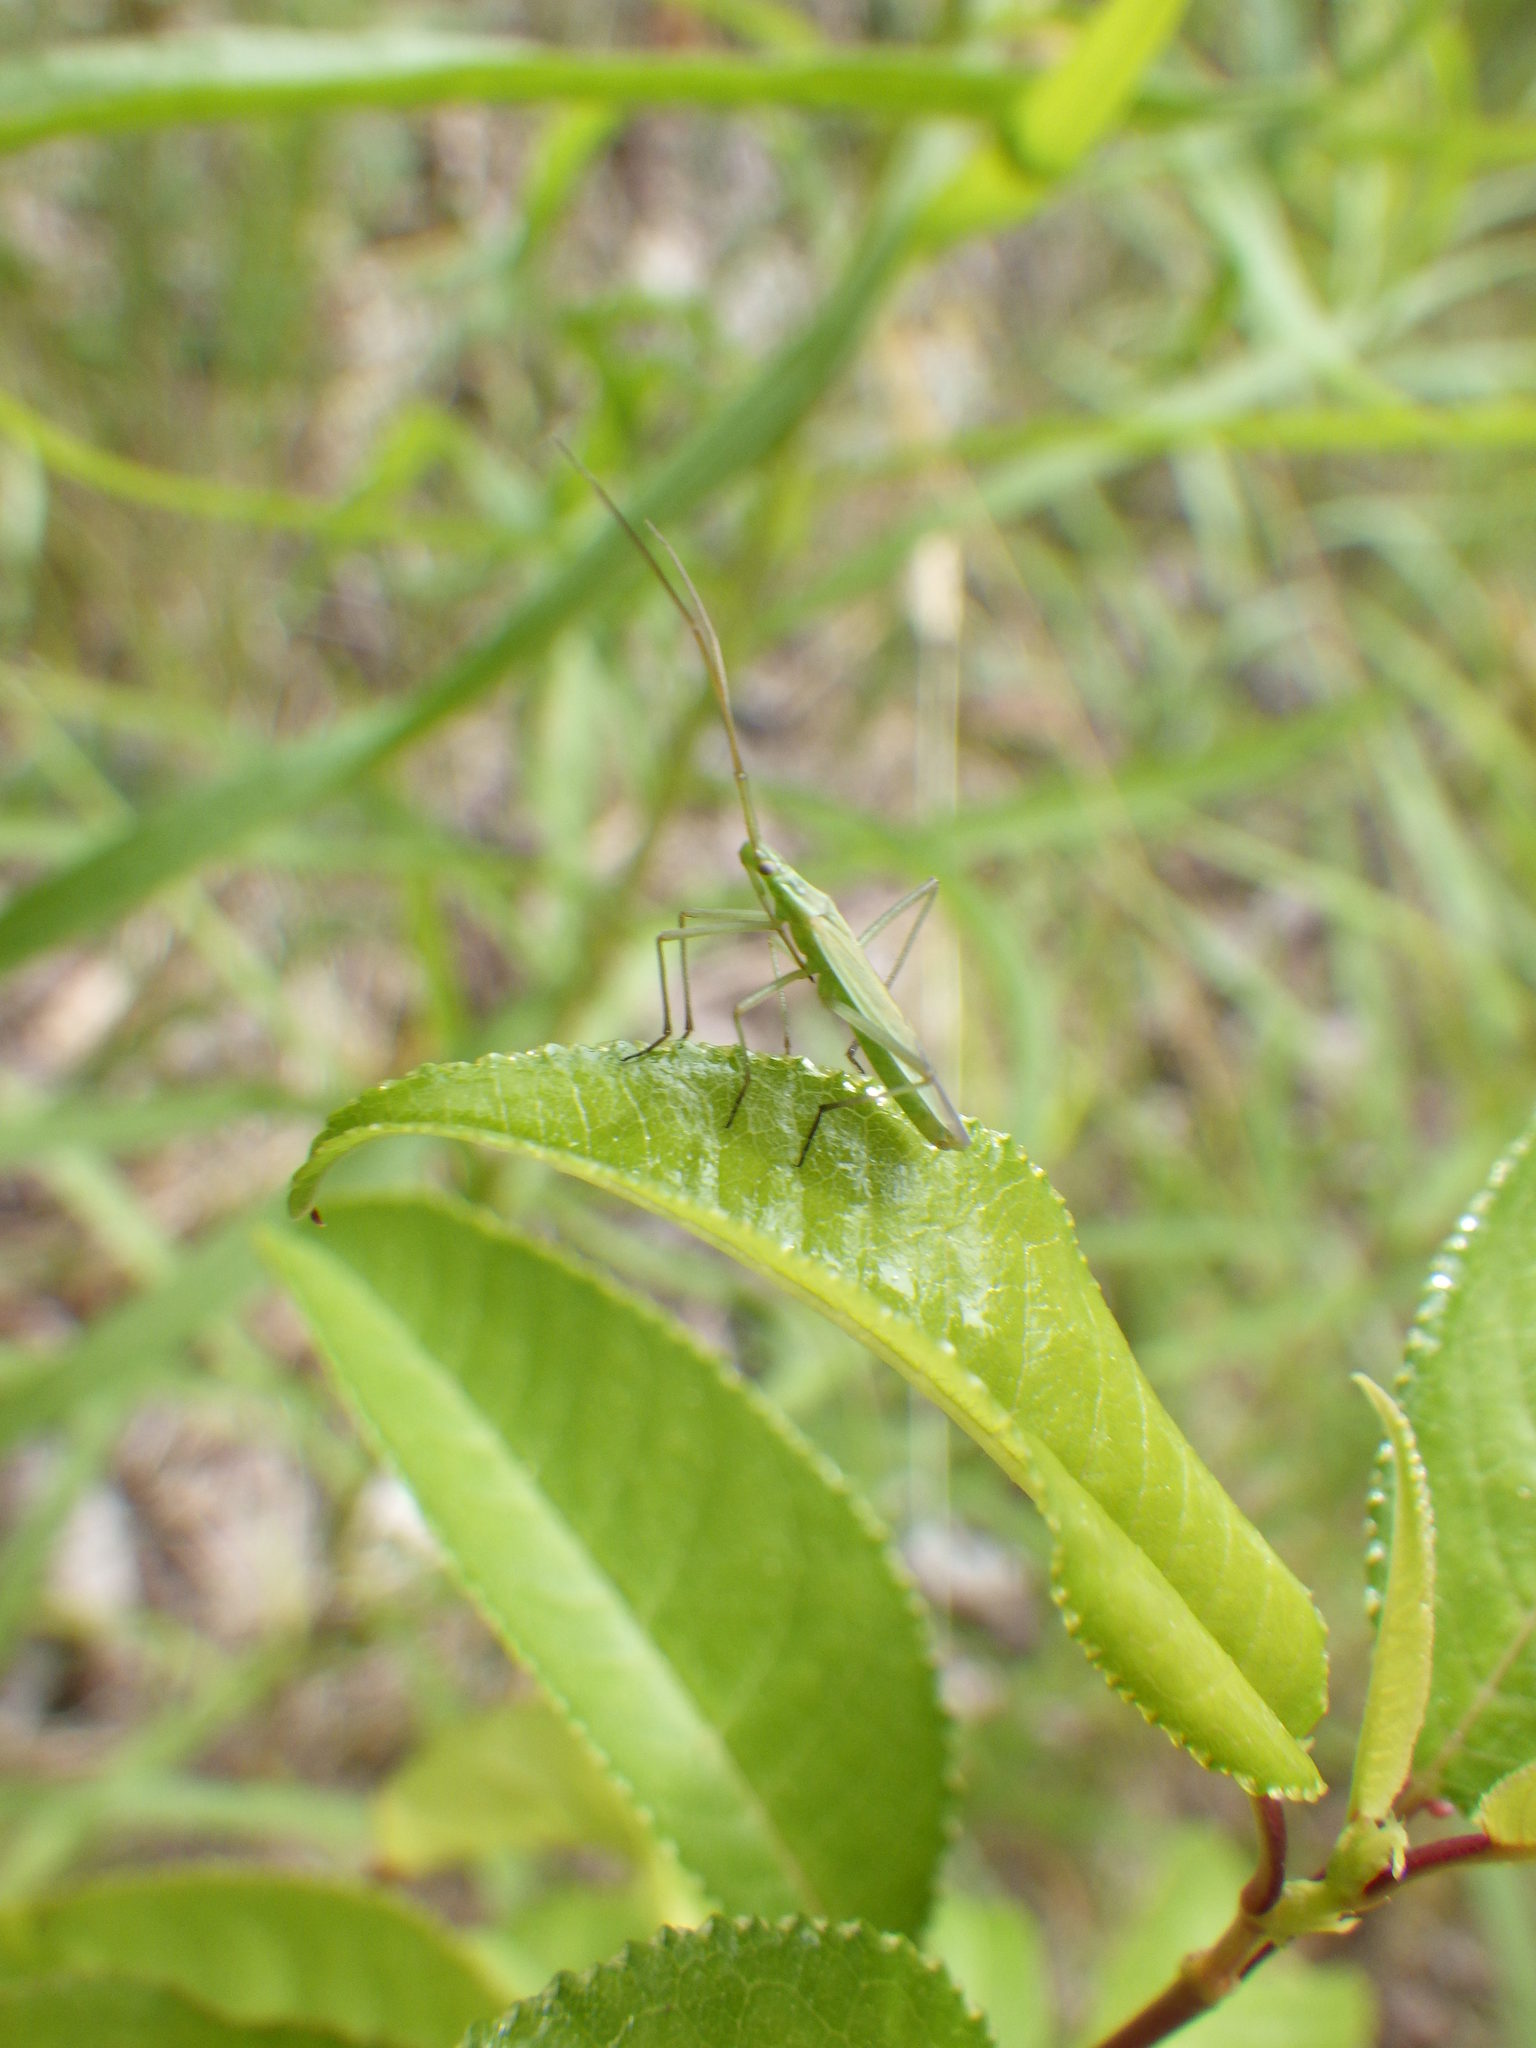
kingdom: Animalia
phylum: Arthropoda
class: Insecta
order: Hemiptera
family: Miridae
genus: Megaloceroea
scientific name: Megaloceroea recticornis
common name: Plant bug
